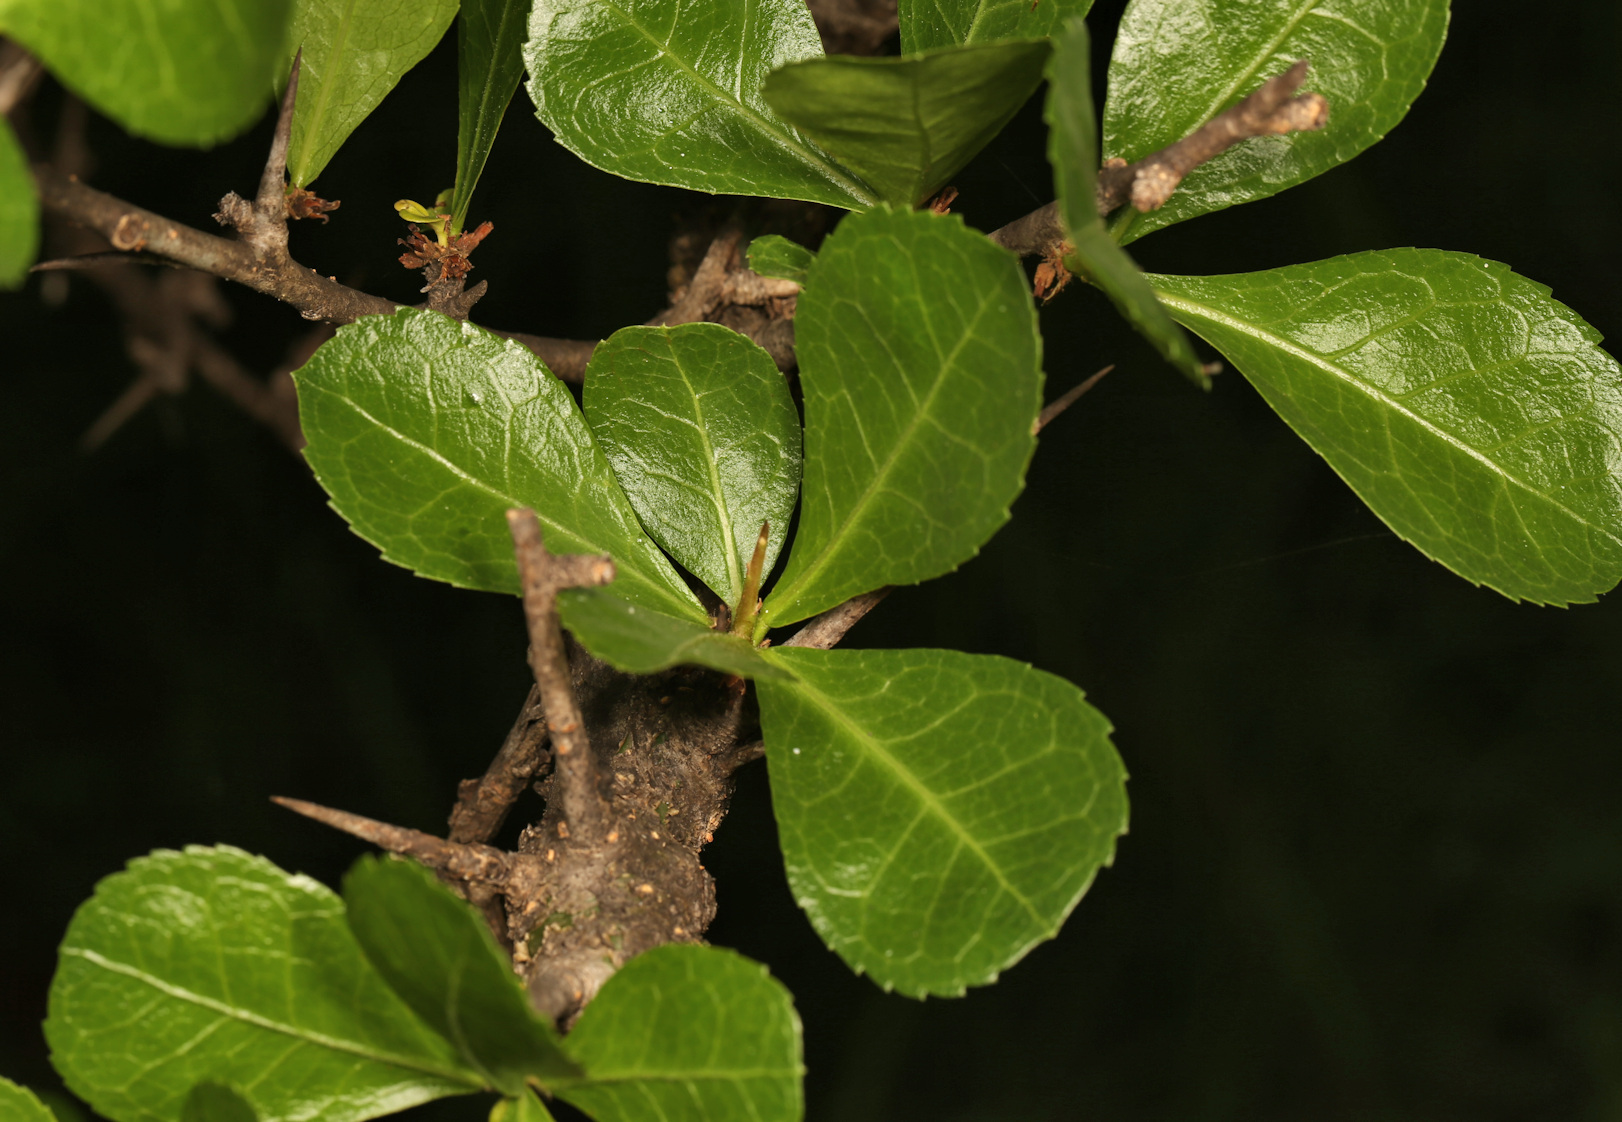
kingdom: Plantae
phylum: Tracheophyta
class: Magnoliopsida
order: Sapindales
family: Burseraceae
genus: Commiphora
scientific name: Commiphora glandulosa
